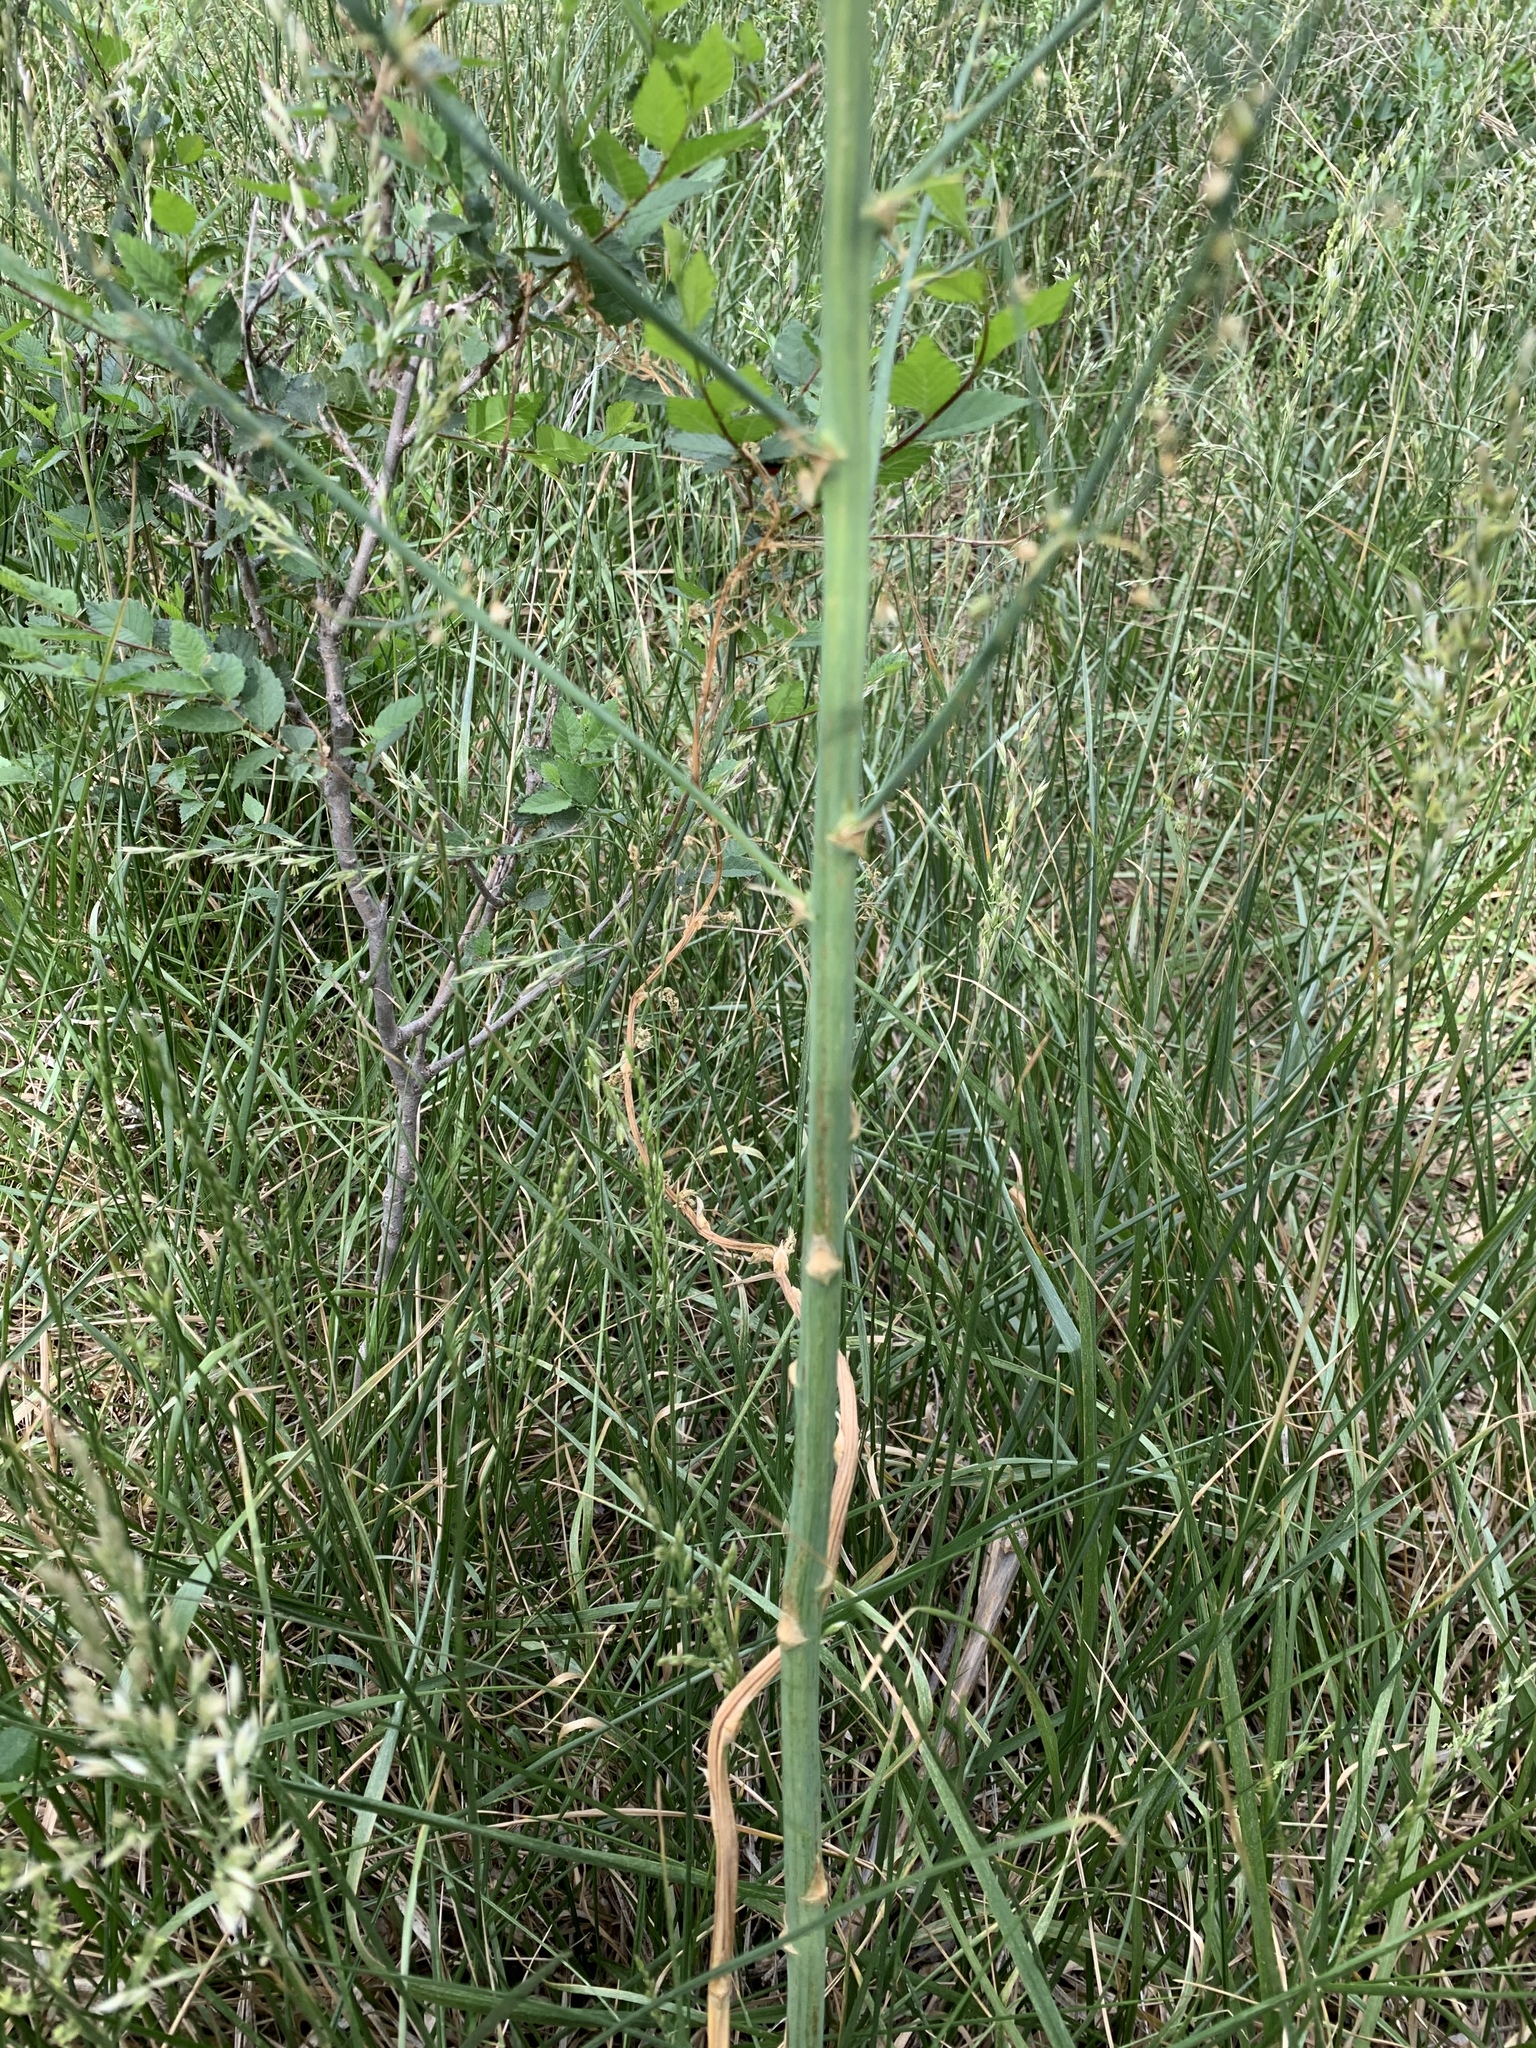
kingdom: Plantae
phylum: Tracheophyta
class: Liliopsida
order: Asparagales
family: Asparagaceae
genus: Asparagus
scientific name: Asparagus officinalis
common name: Garden asparagus
